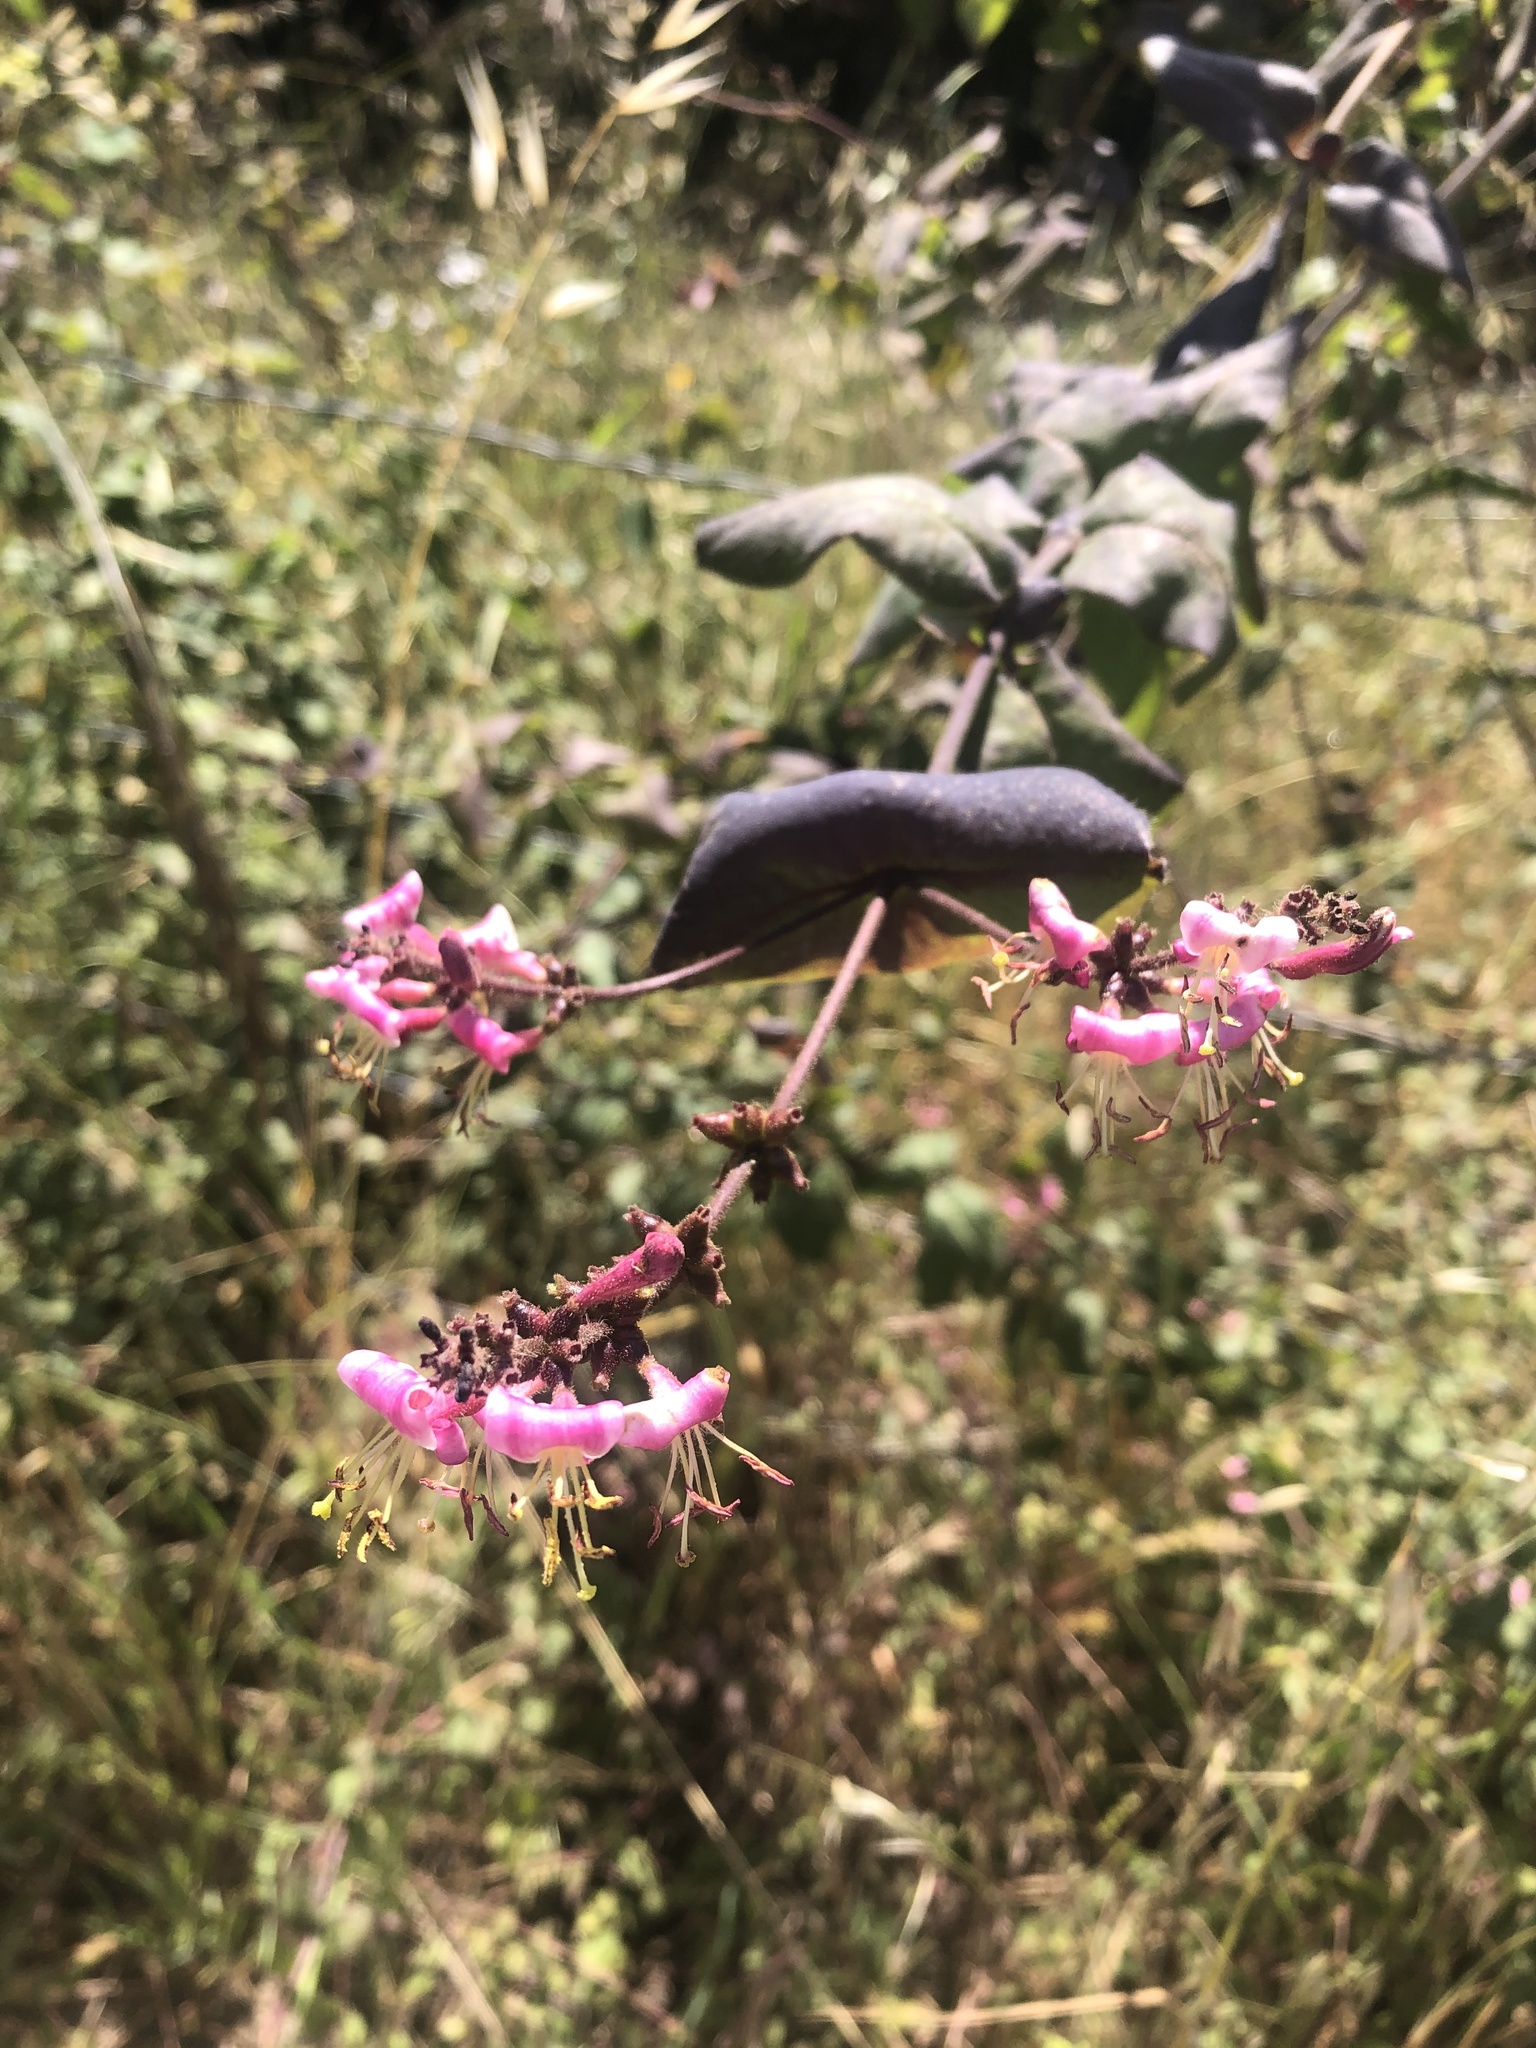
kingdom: Plantae
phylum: Tracheophyta
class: Magnoliopsida
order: Dipsacales
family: Caprifoliaceae
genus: Lonicera
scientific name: Lonicera hispidula
